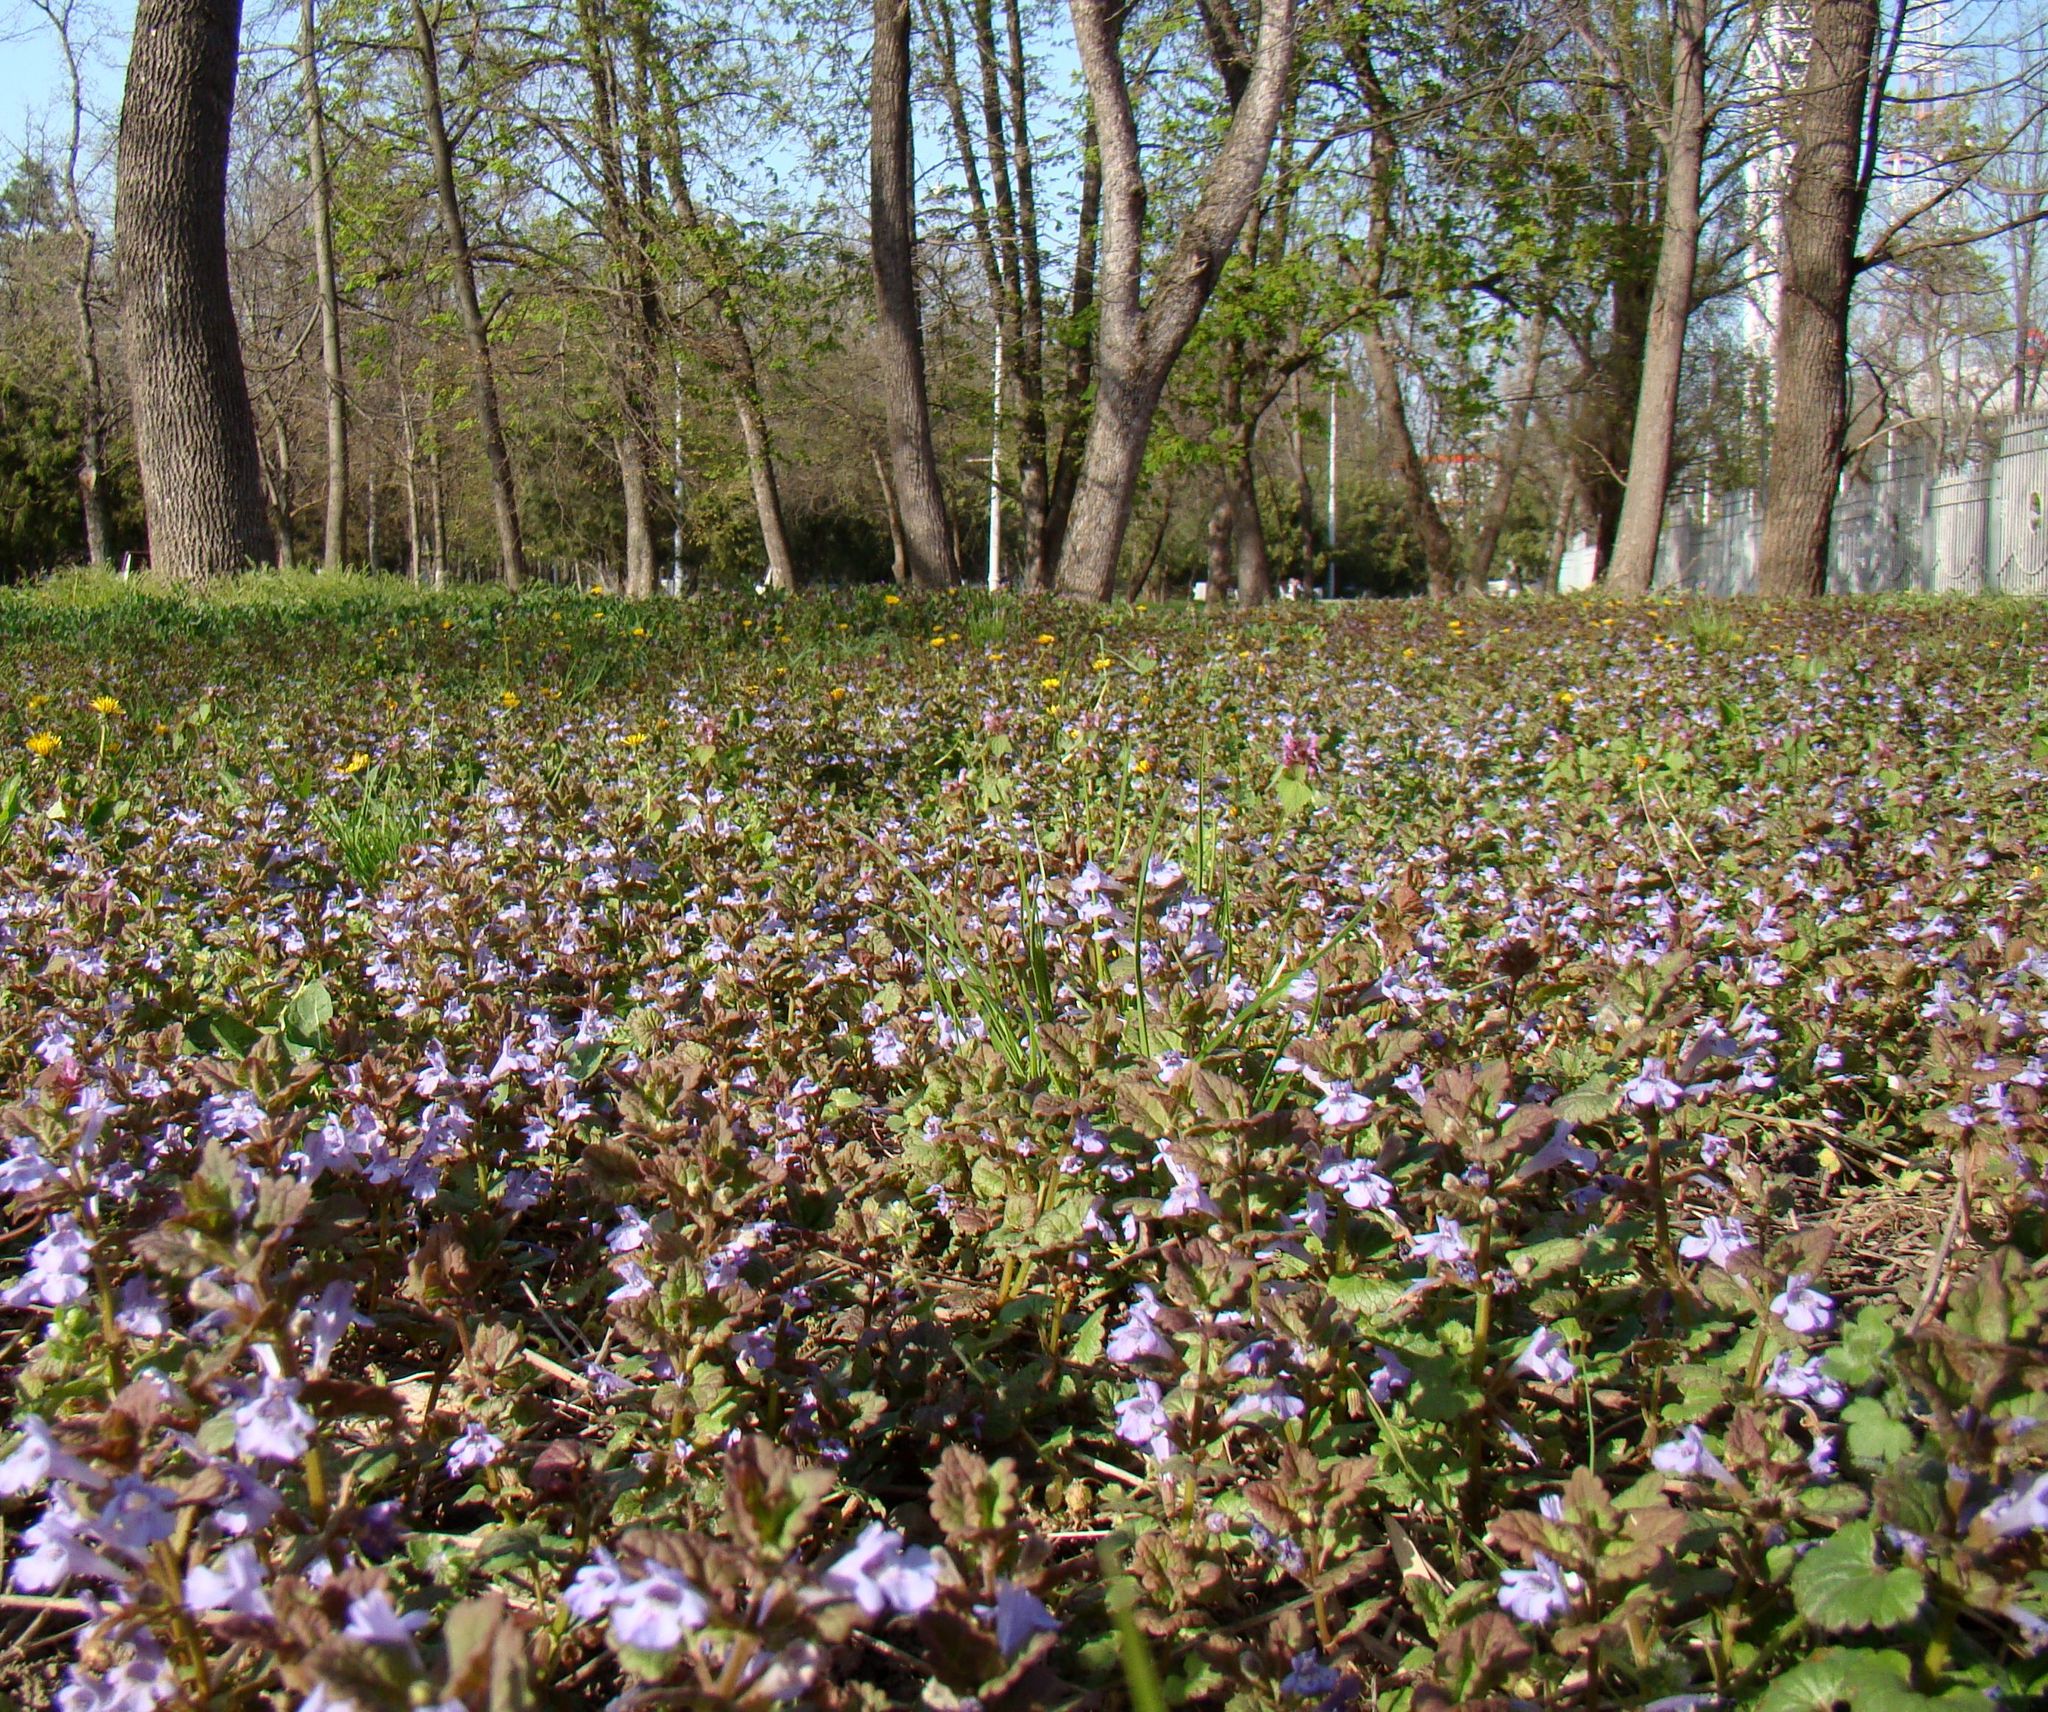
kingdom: Plantae
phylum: Tracheophyta
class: Magnoliopsida
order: Lamiales
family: Lamiaceae
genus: Glechoma
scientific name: Glechoma hederacea
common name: Ground ivy
